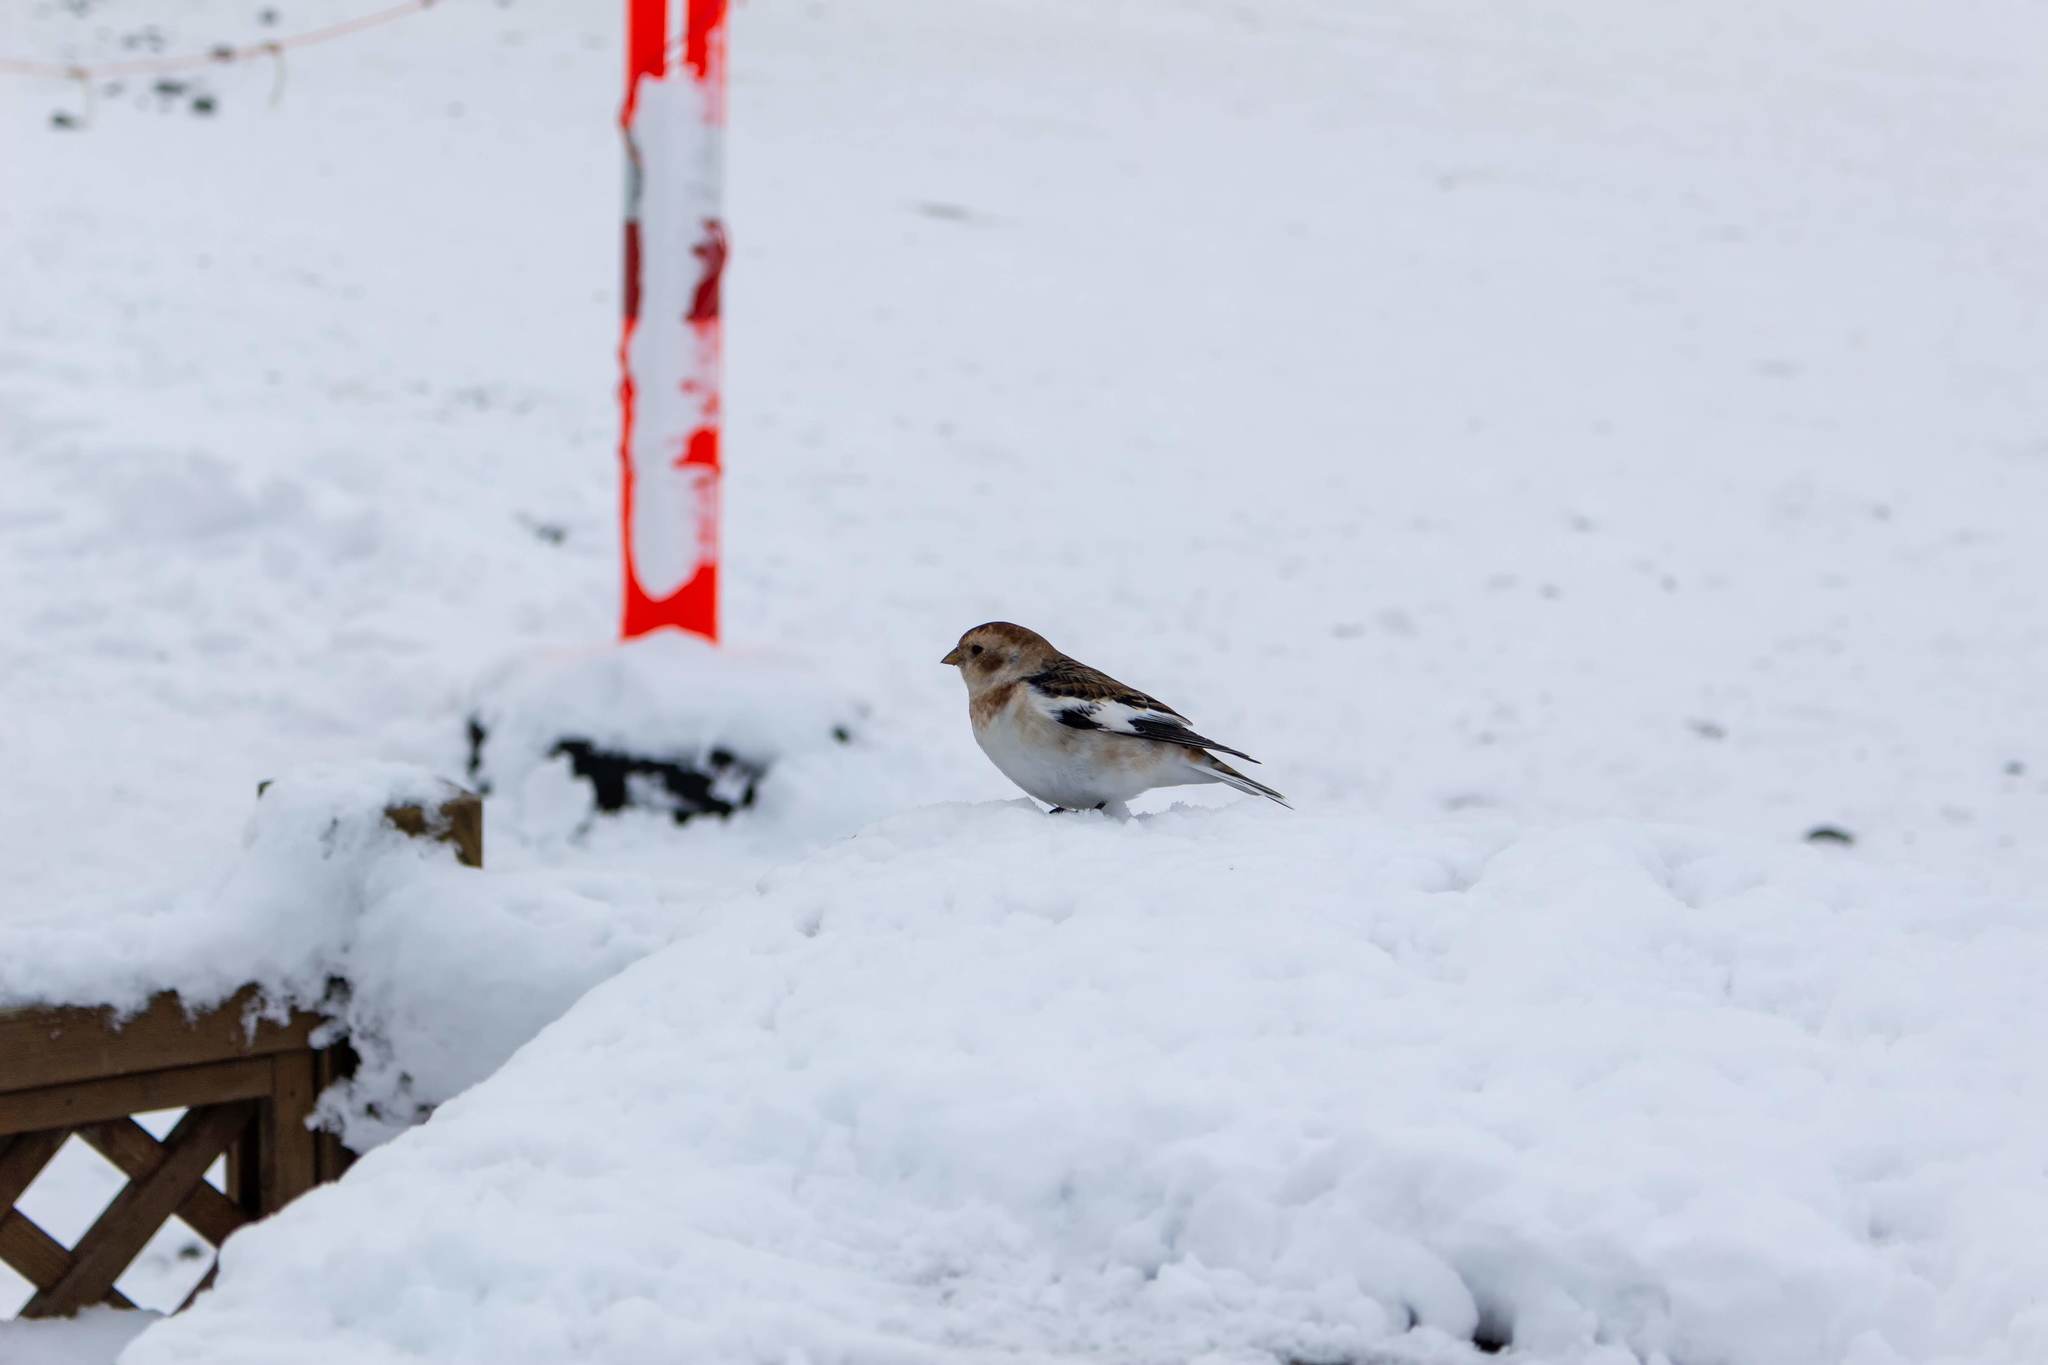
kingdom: Animalia
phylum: Chordata
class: Aves
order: Passeriformes
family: Calcariidae
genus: Plectrophenax
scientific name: Plectrophenax nivalis
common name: Snow bunting
